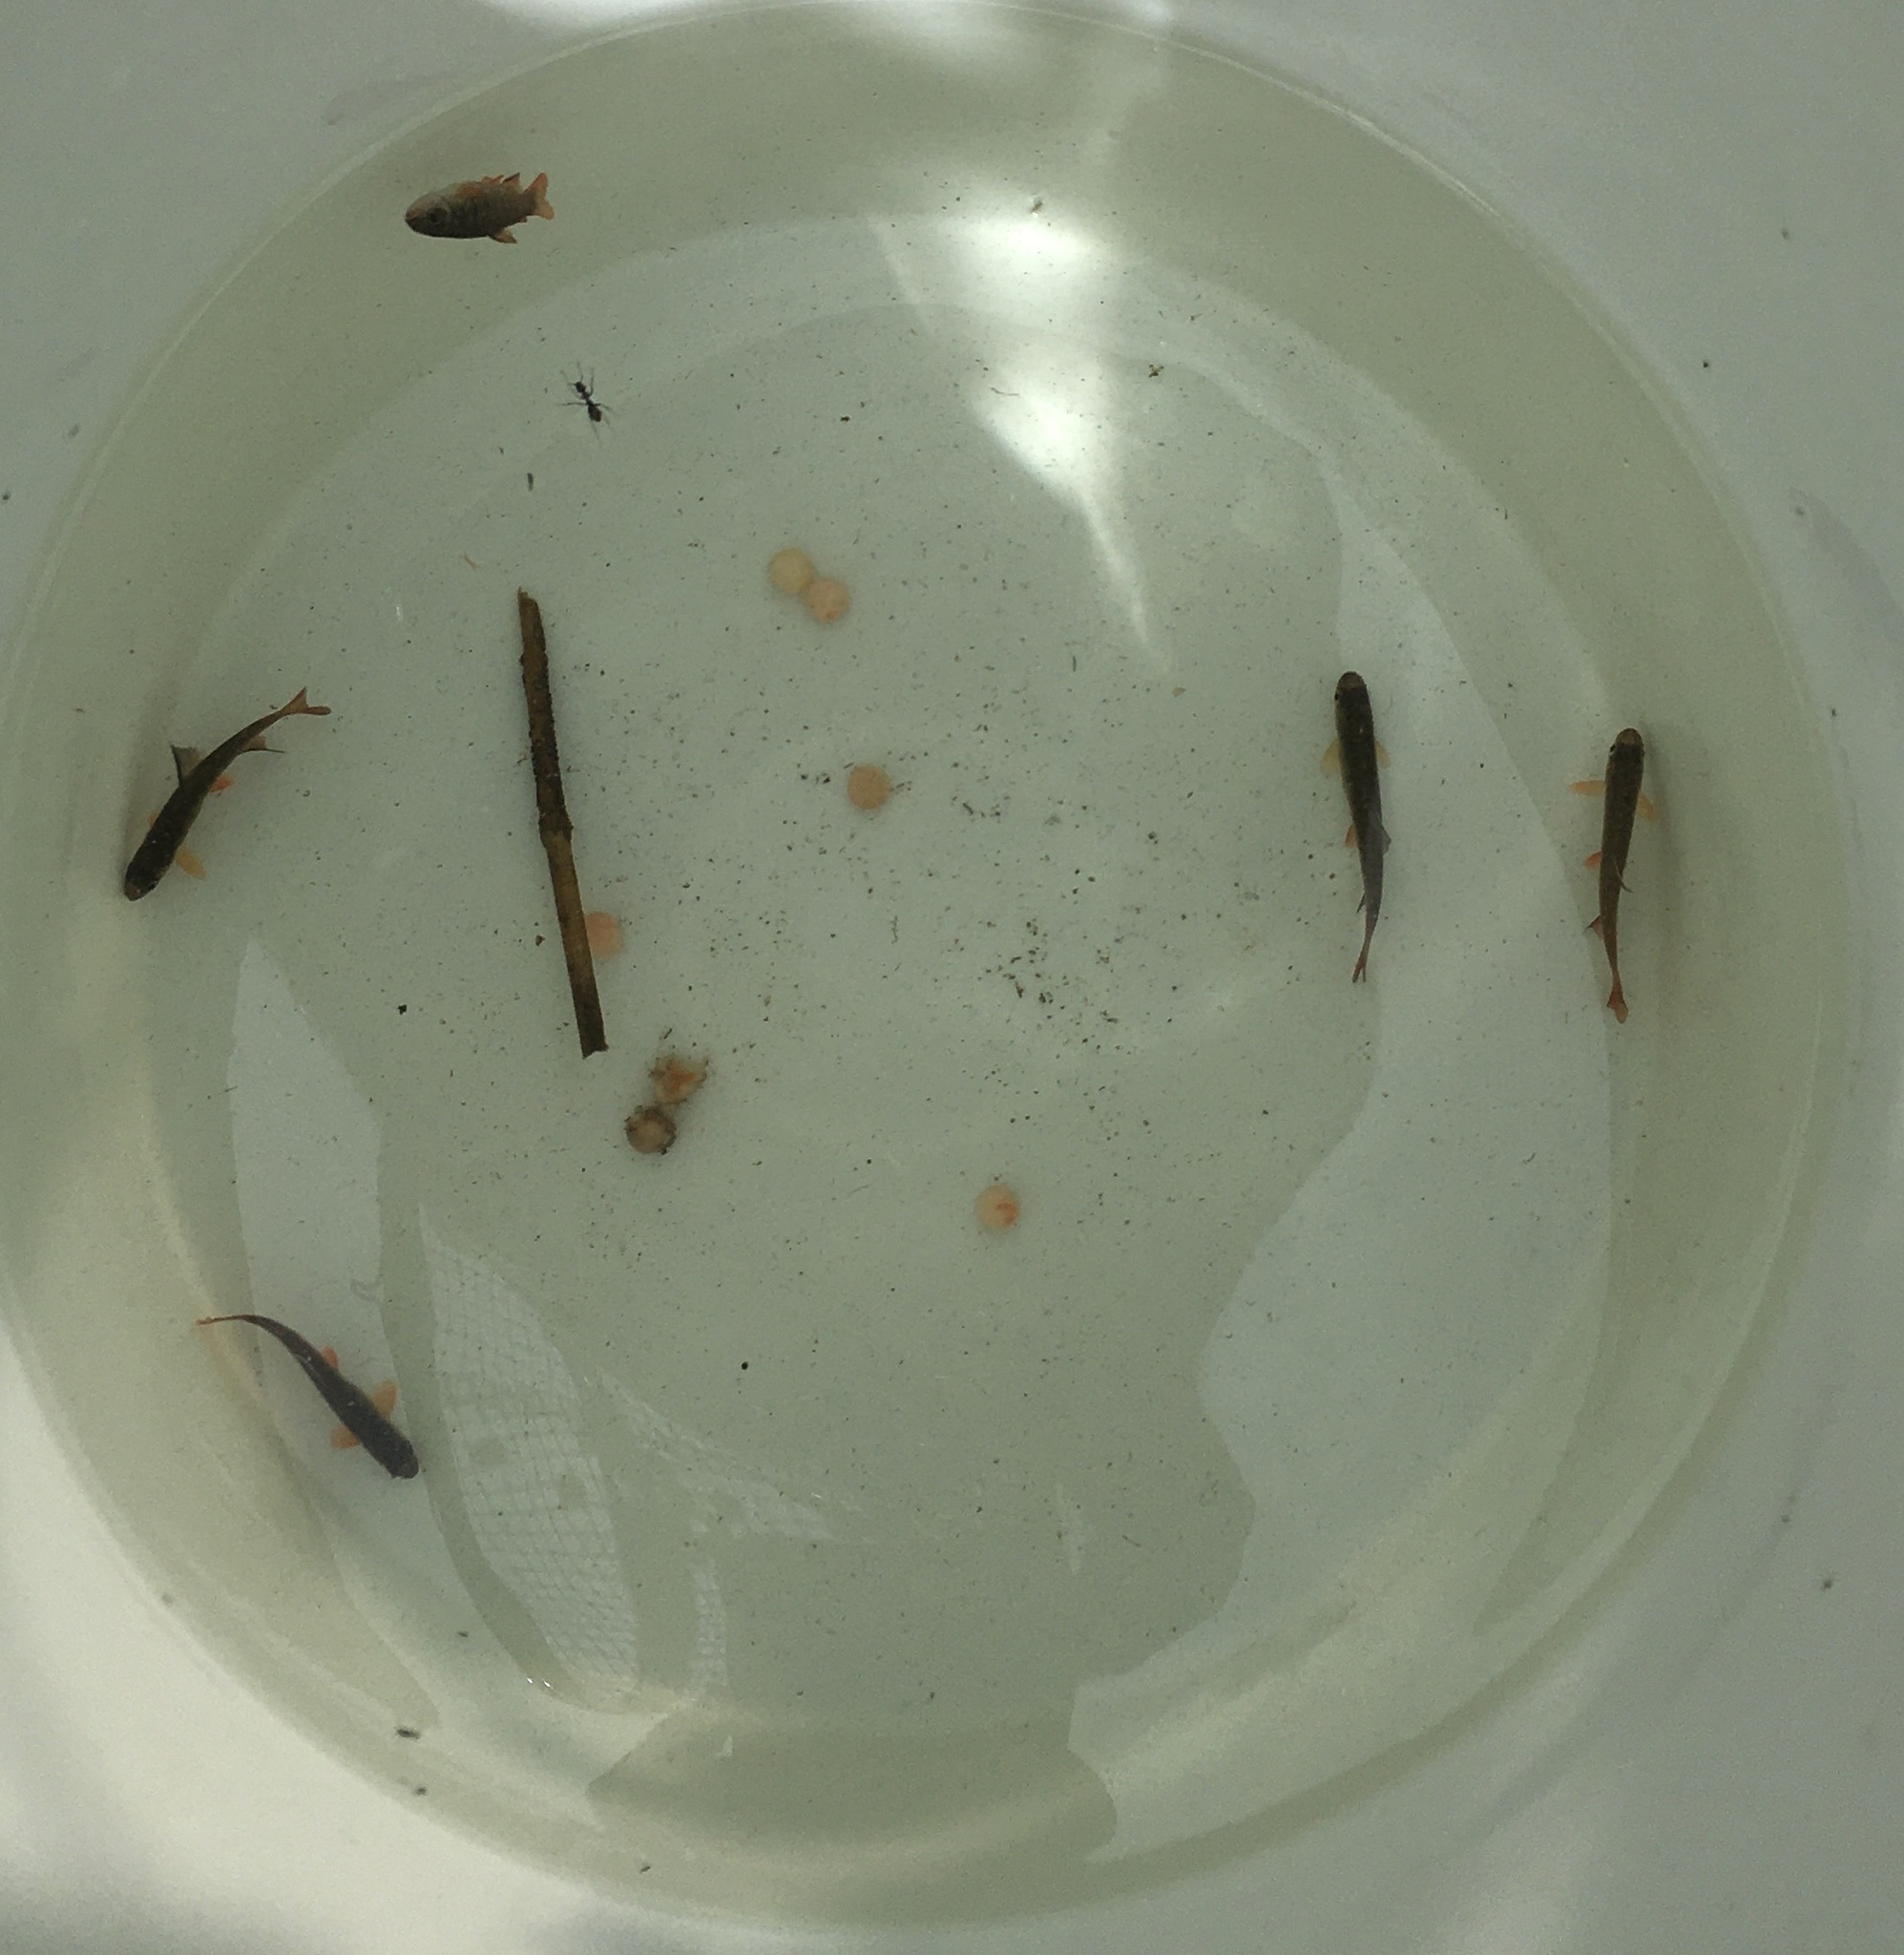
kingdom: Animalia
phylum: Chordata
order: Salmoniformes
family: Salmonidae
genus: Oncorhynchus
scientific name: Oncorhynchus kisutch
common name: Coho salmon
